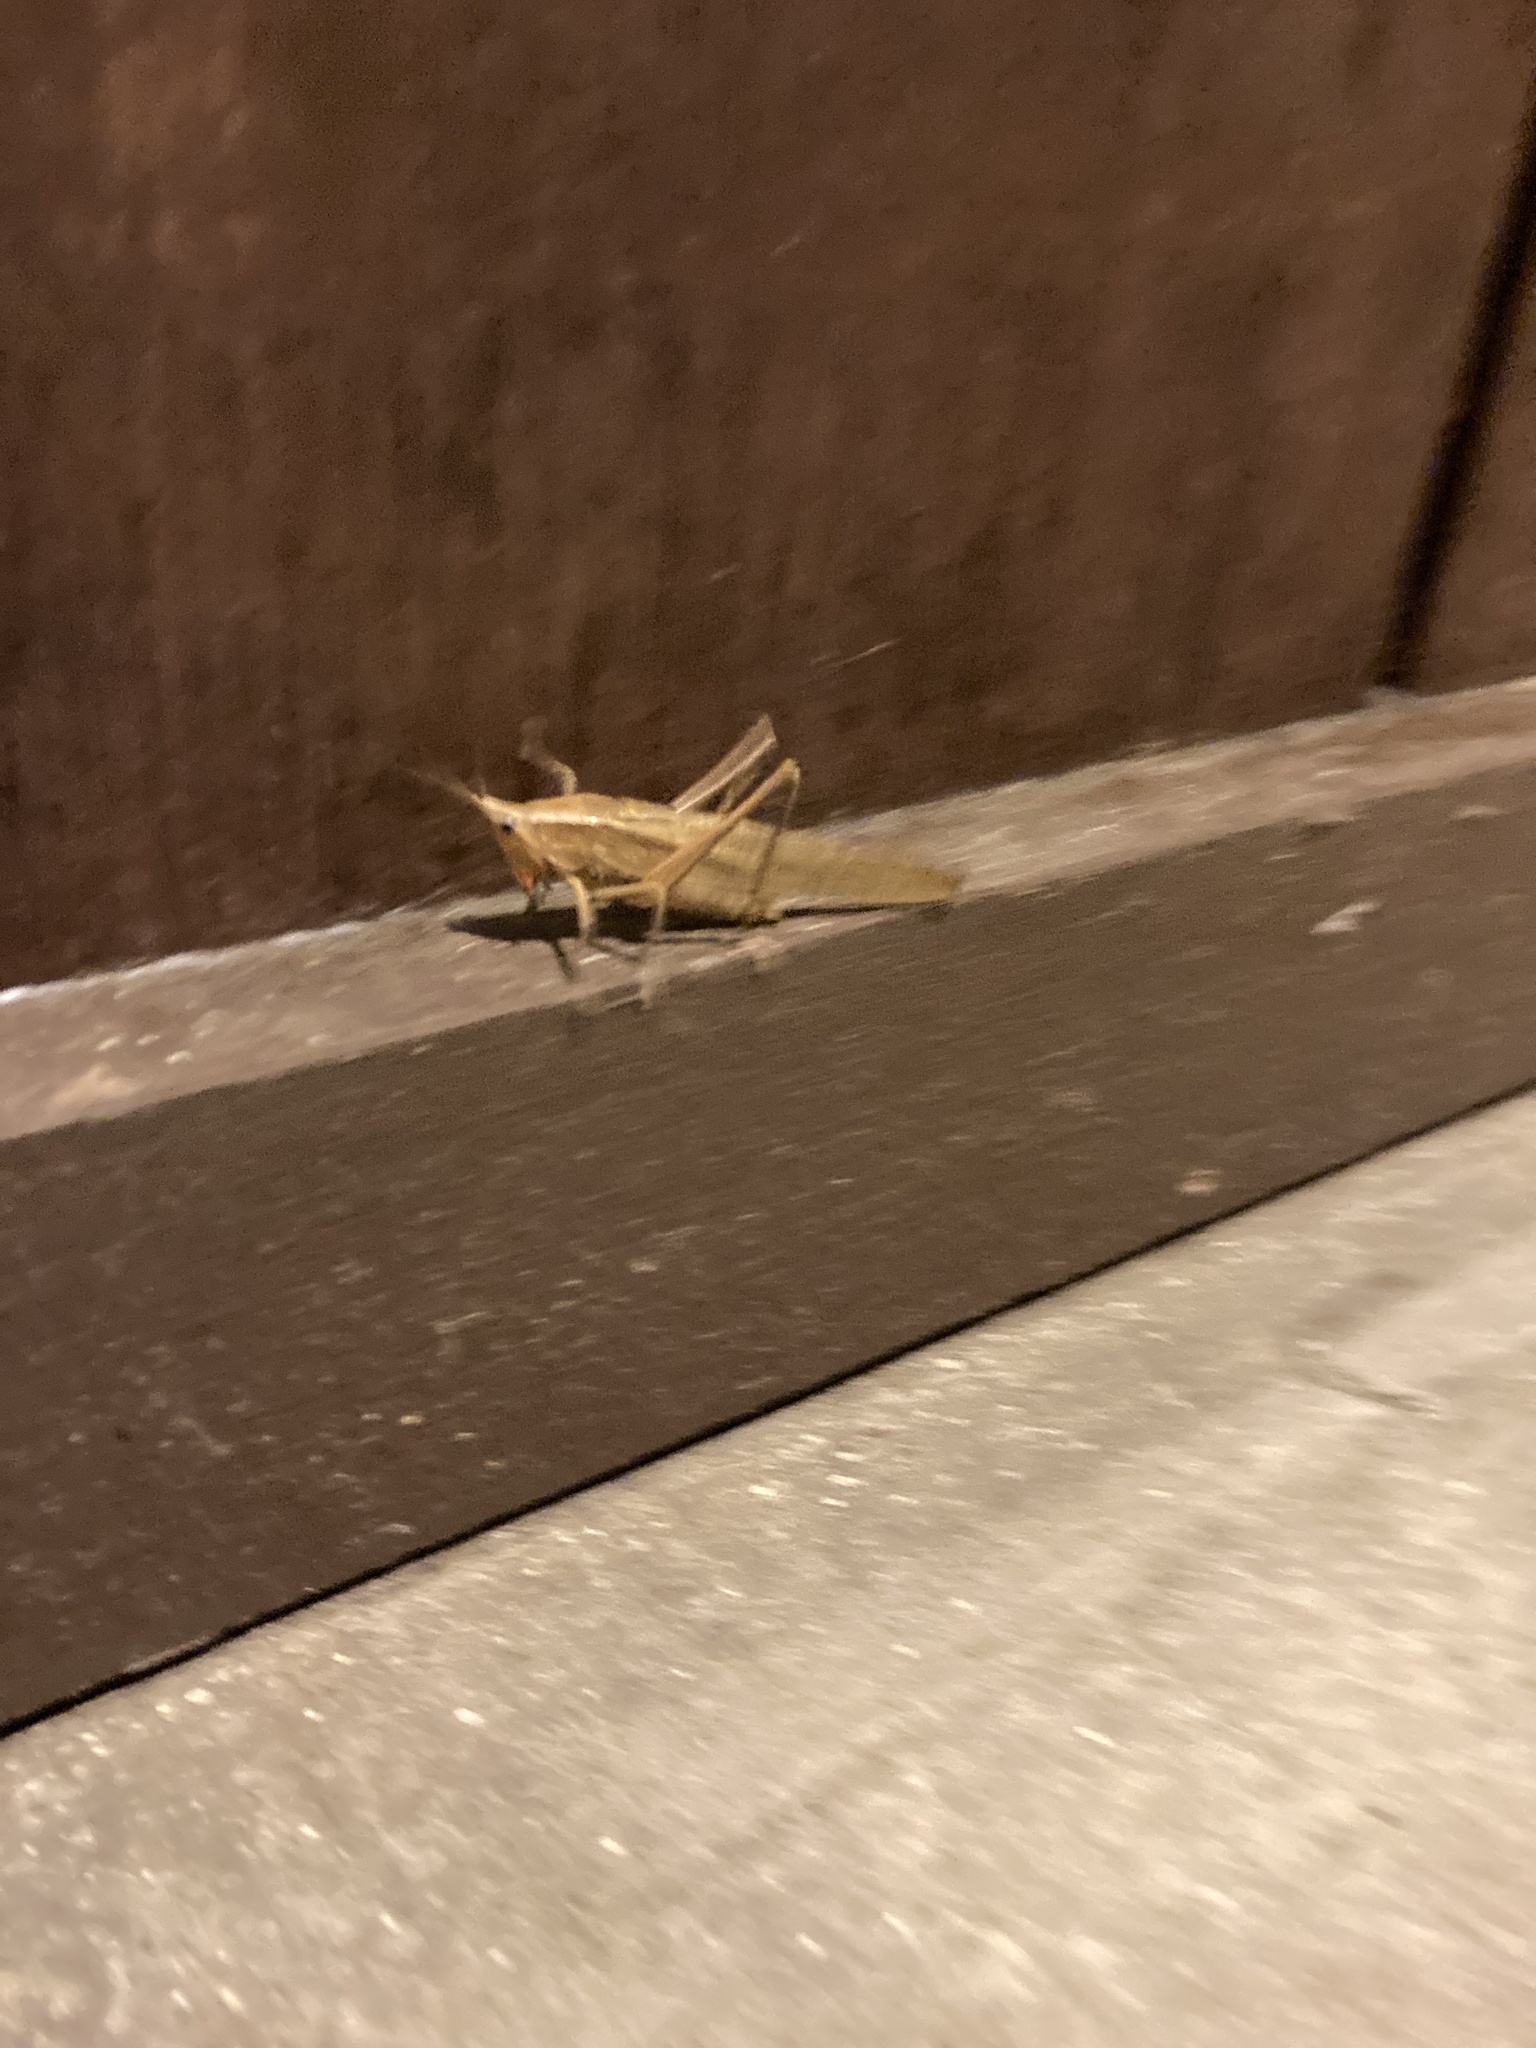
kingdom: Animalia
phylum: Arthropoda
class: Insecta
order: Orthoptera
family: Tettigoniidae
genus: Neoconocephalus
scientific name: Neoconocephalus triops
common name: Broad-tipped conehead
